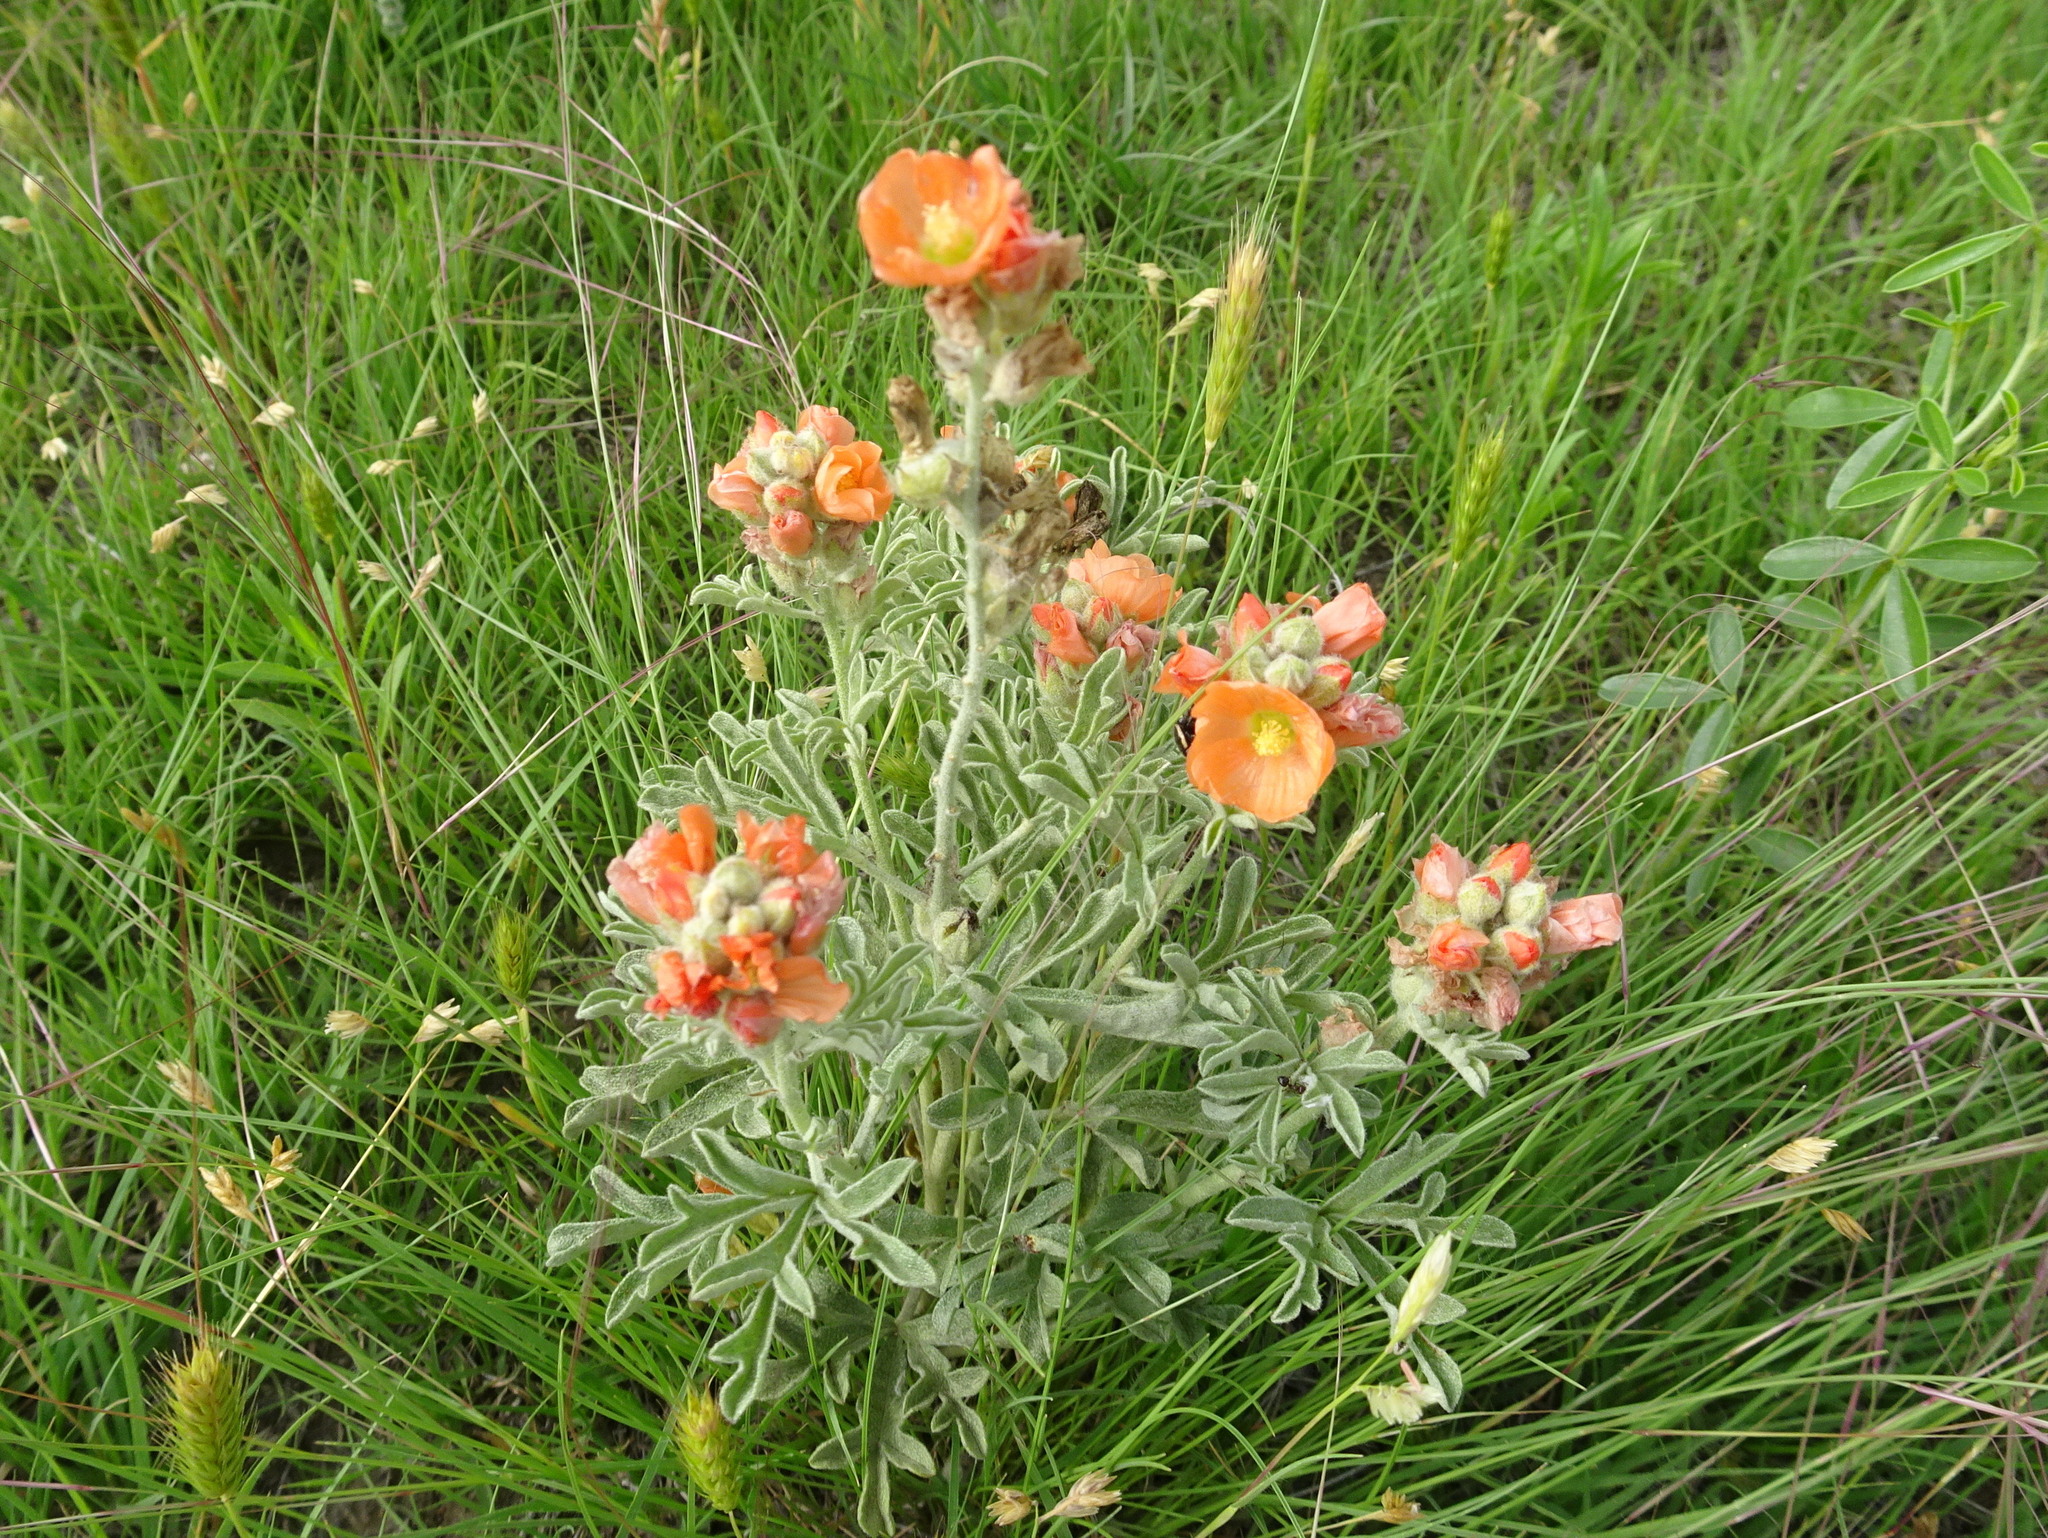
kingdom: Plantae
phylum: Tracheophyta
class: Magnoliopsida
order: Malvales
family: Malvaceae
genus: Sphaeralcea
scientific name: Sphaeralcea coccinea
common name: Moss-rose
